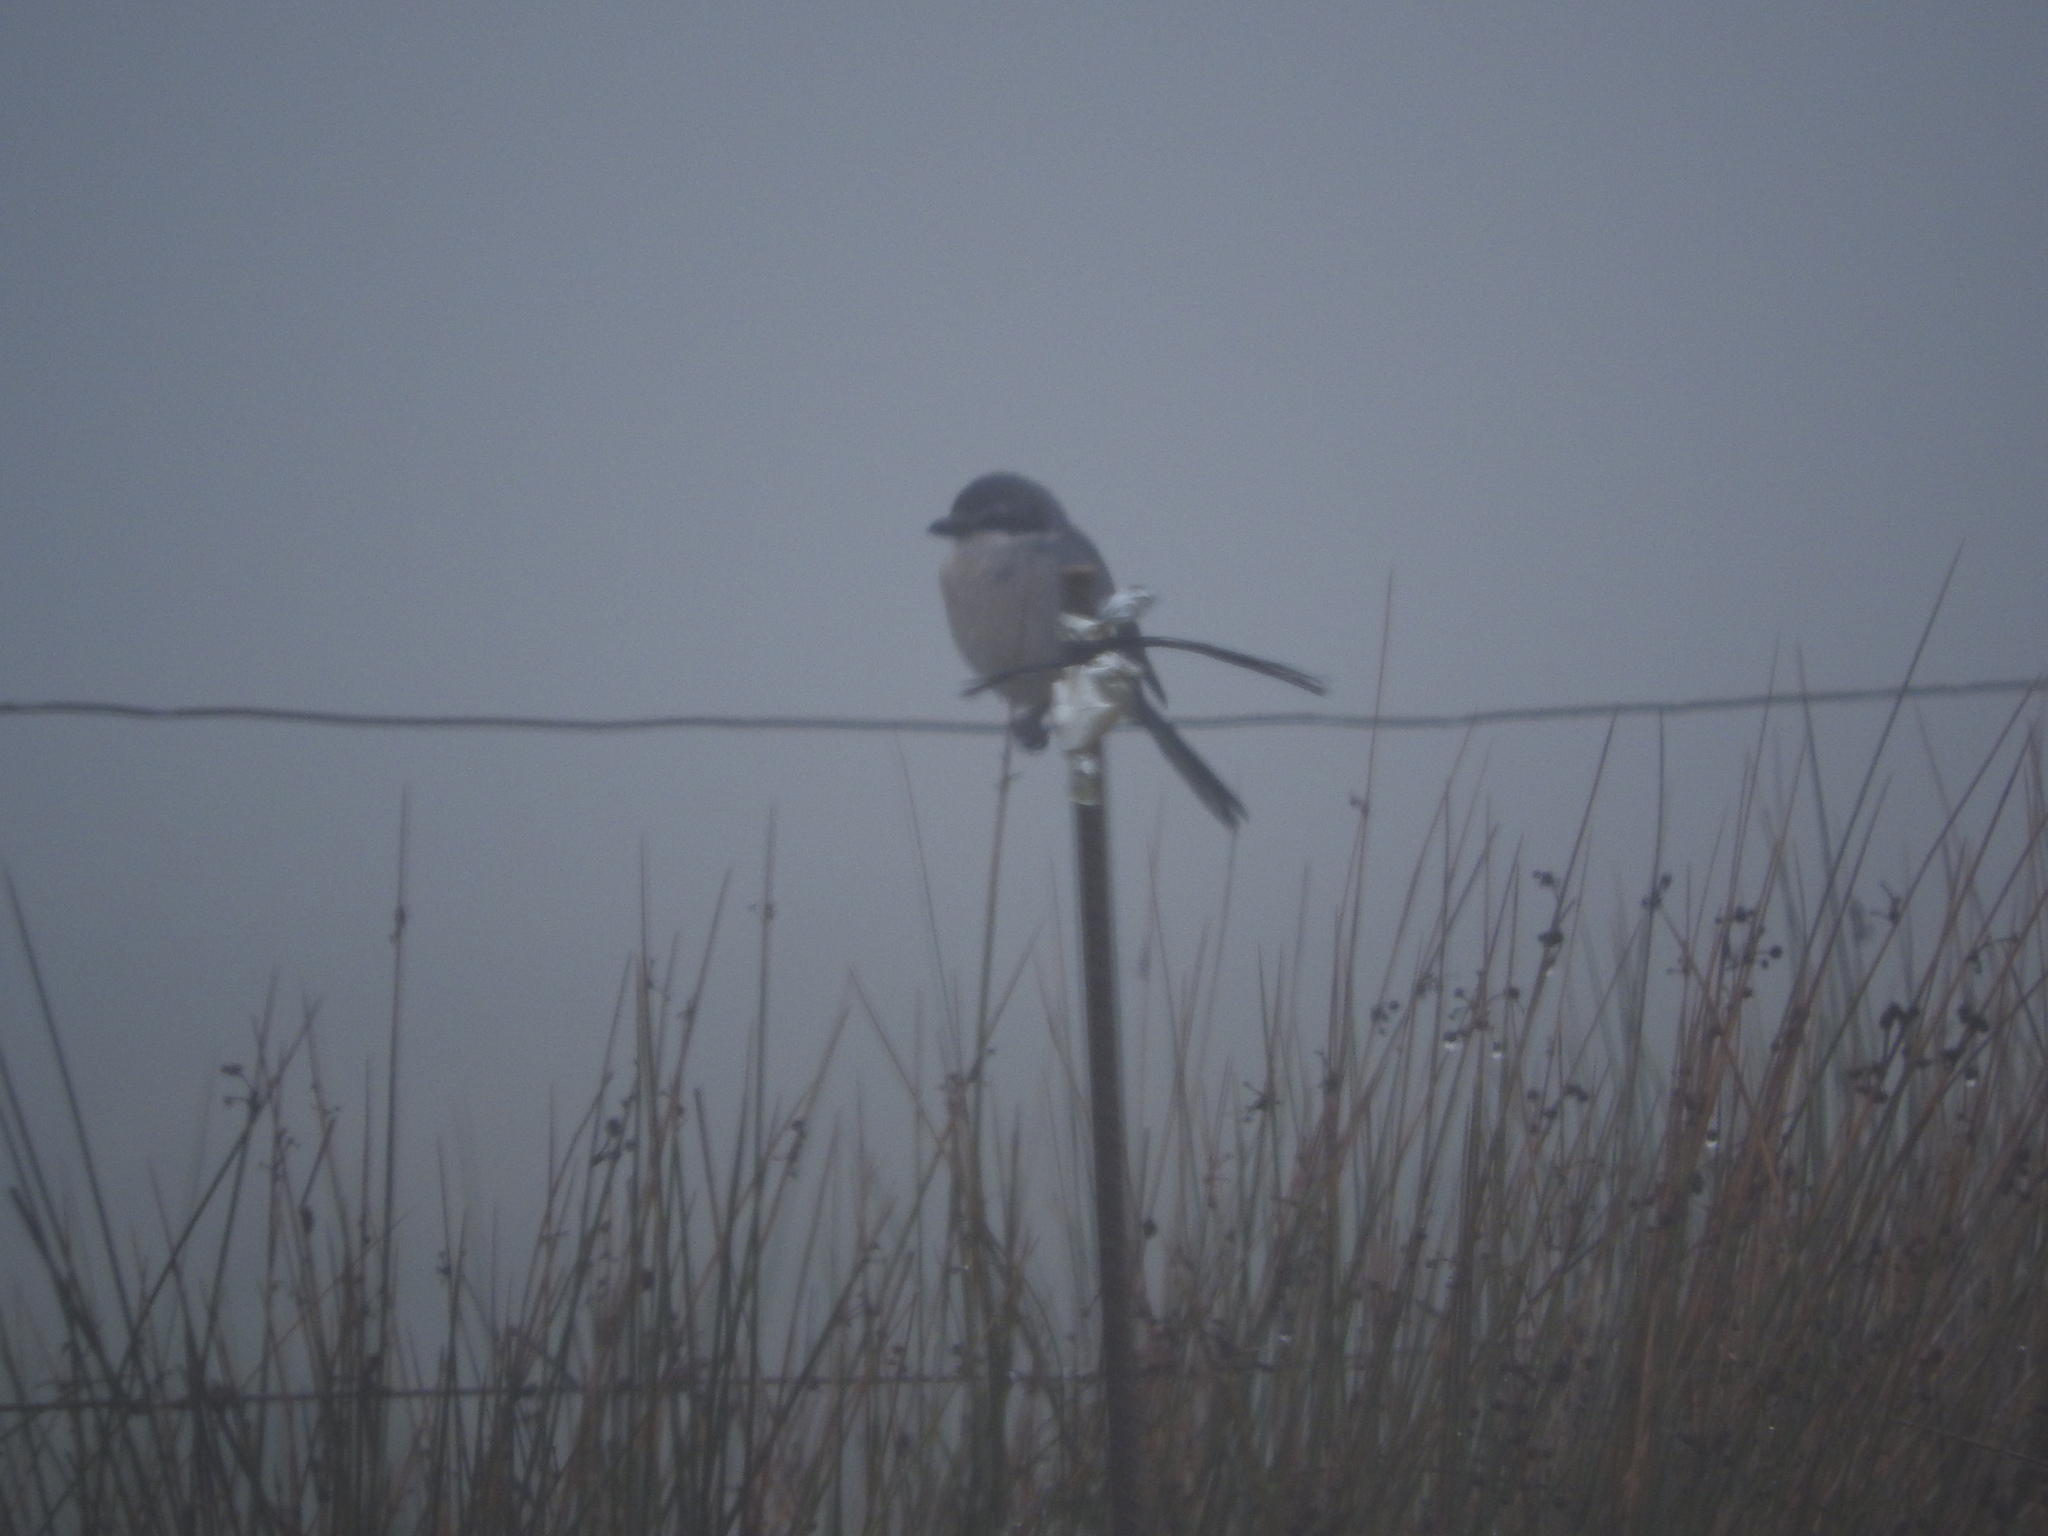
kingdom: Animalia
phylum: Chordata
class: Aves
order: Passeriformes
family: Laniidae
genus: Lanius
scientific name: Lanius meridionalis
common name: Iberian grey shrike
